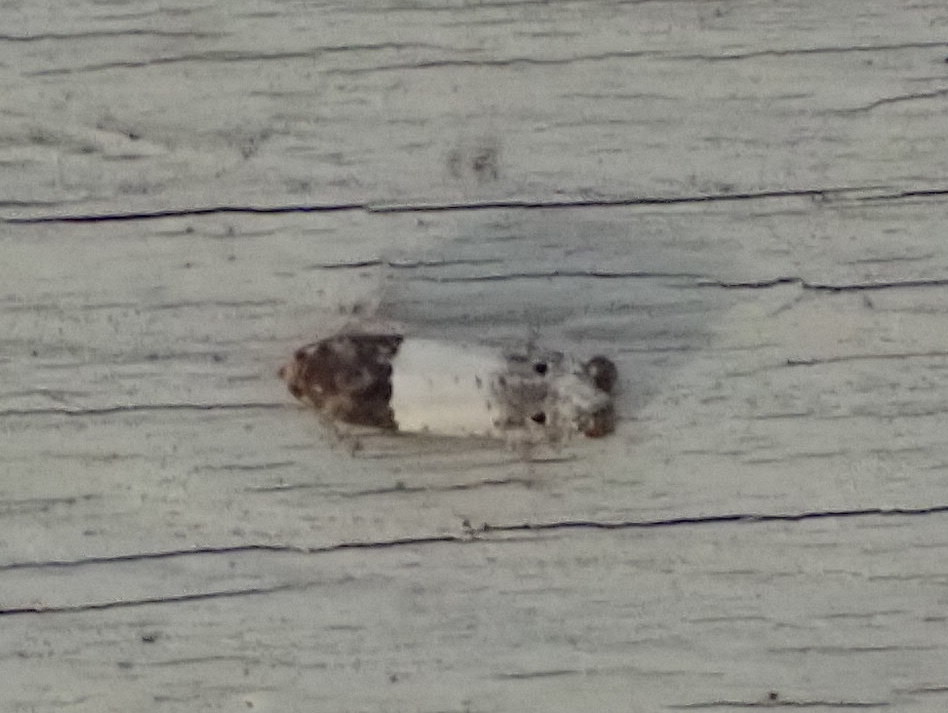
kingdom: Animalia
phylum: Arthropoda
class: Insecta
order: Lepidoptera
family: Tortricidae
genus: Epiblema
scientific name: Epiblema scudderiana
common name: Goldenrod gall moth
